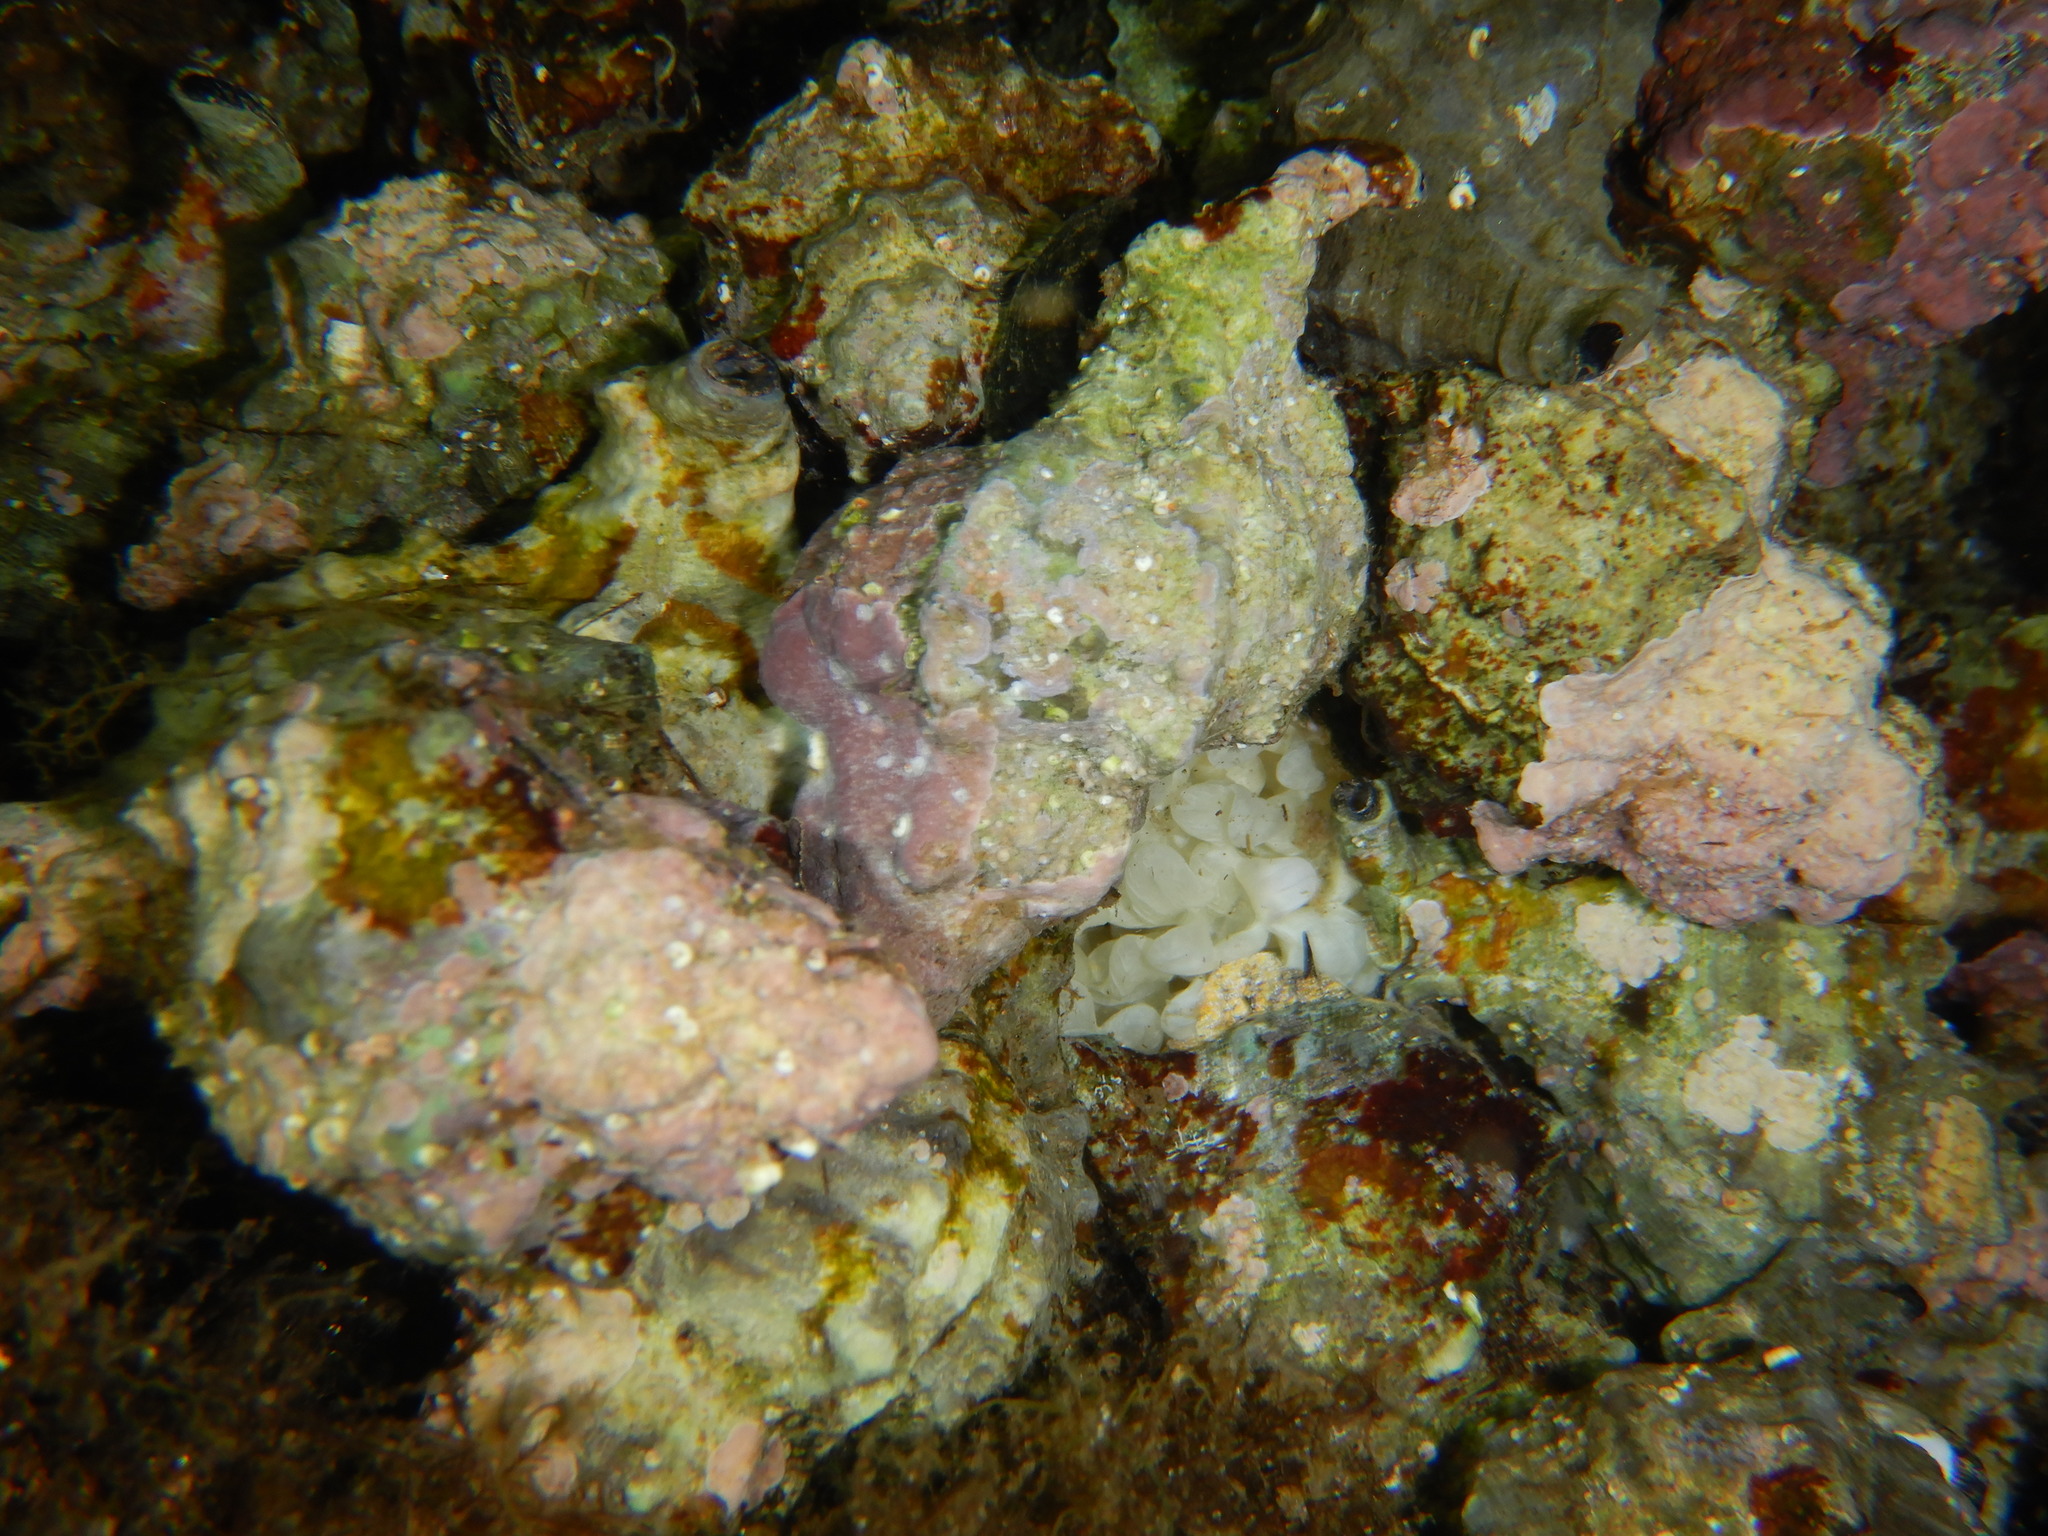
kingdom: Animalia
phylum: Mollusca
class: Gastropoda
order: Neogastropoda
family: Muricidae
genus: Hexaplex
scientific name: Hexaplex trunculus
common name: Banded dye-murex
